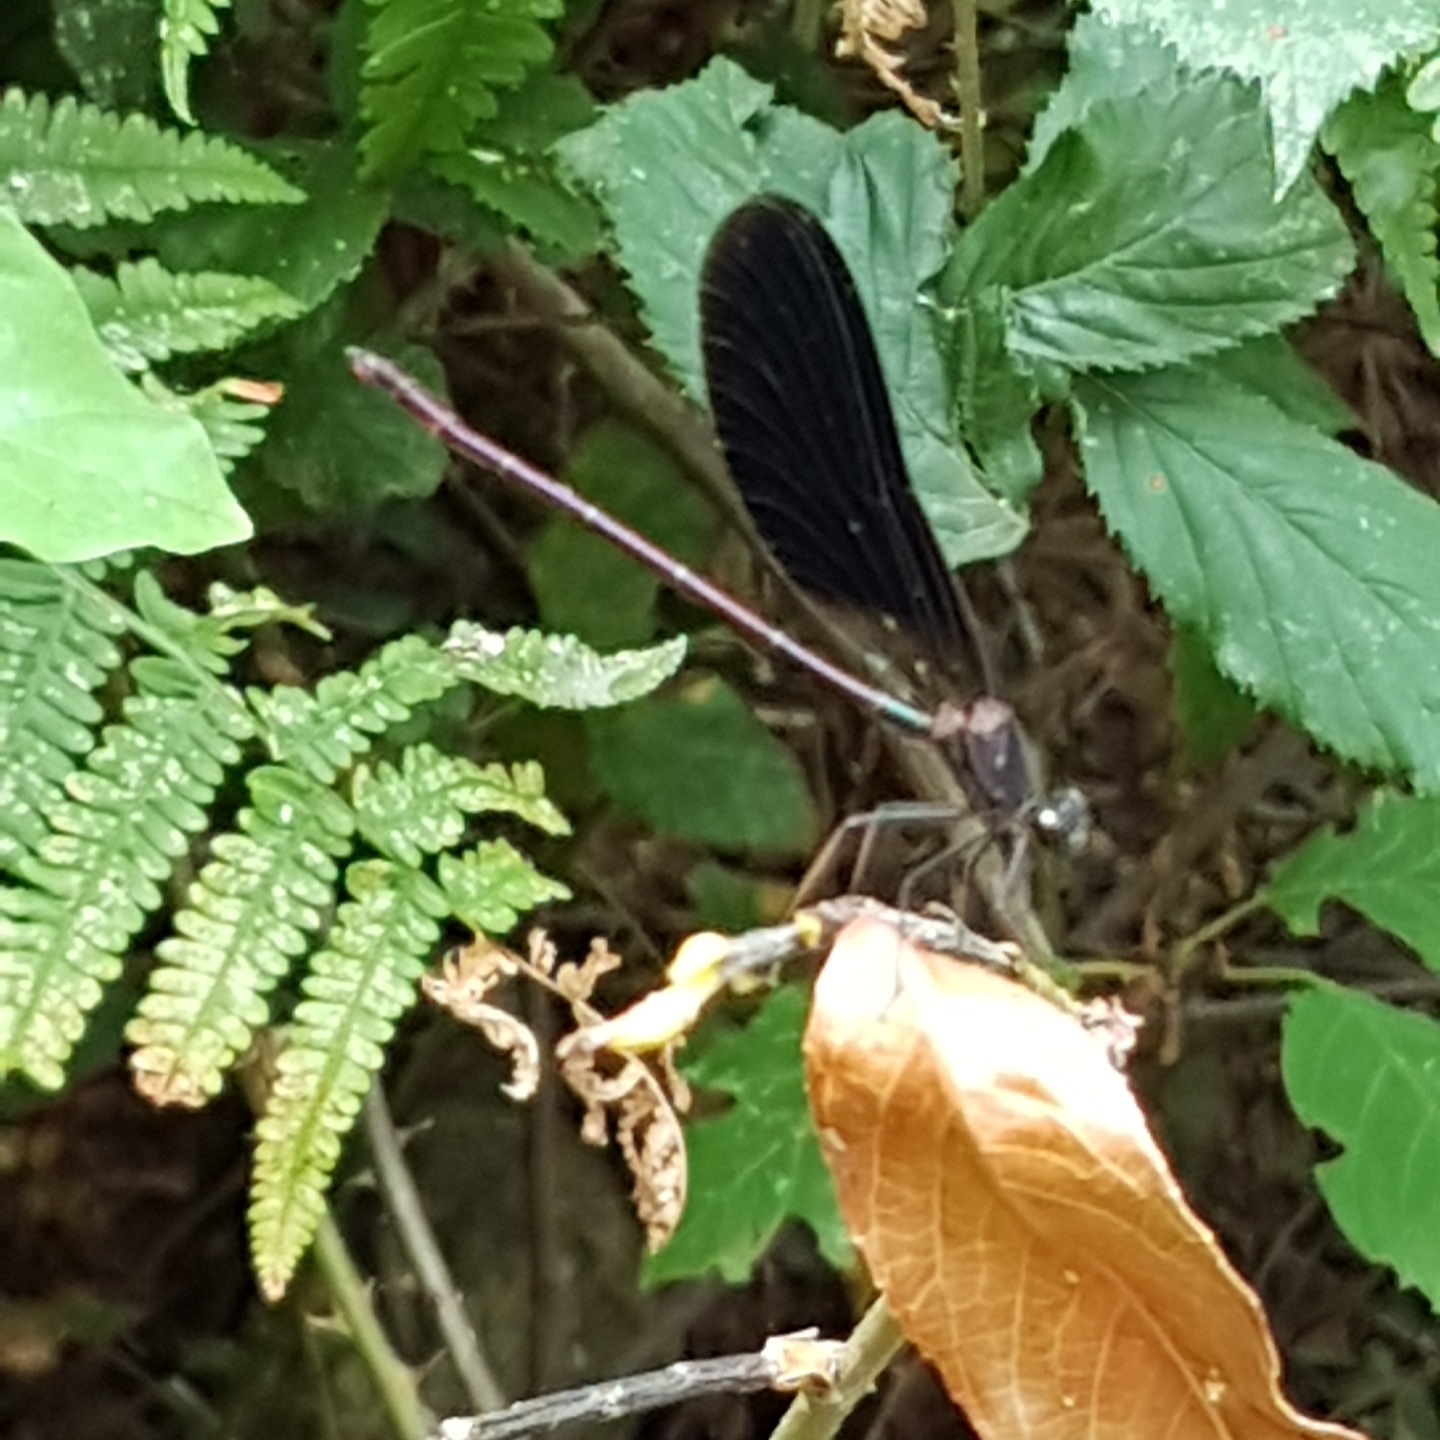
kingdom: Animalia
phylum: Arthropoda
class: Insecta
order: Odonata
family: Calopterygidae
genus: Calopteryx
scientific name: Calopteryx haemorrhoidalis
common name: Copper demoiselle
